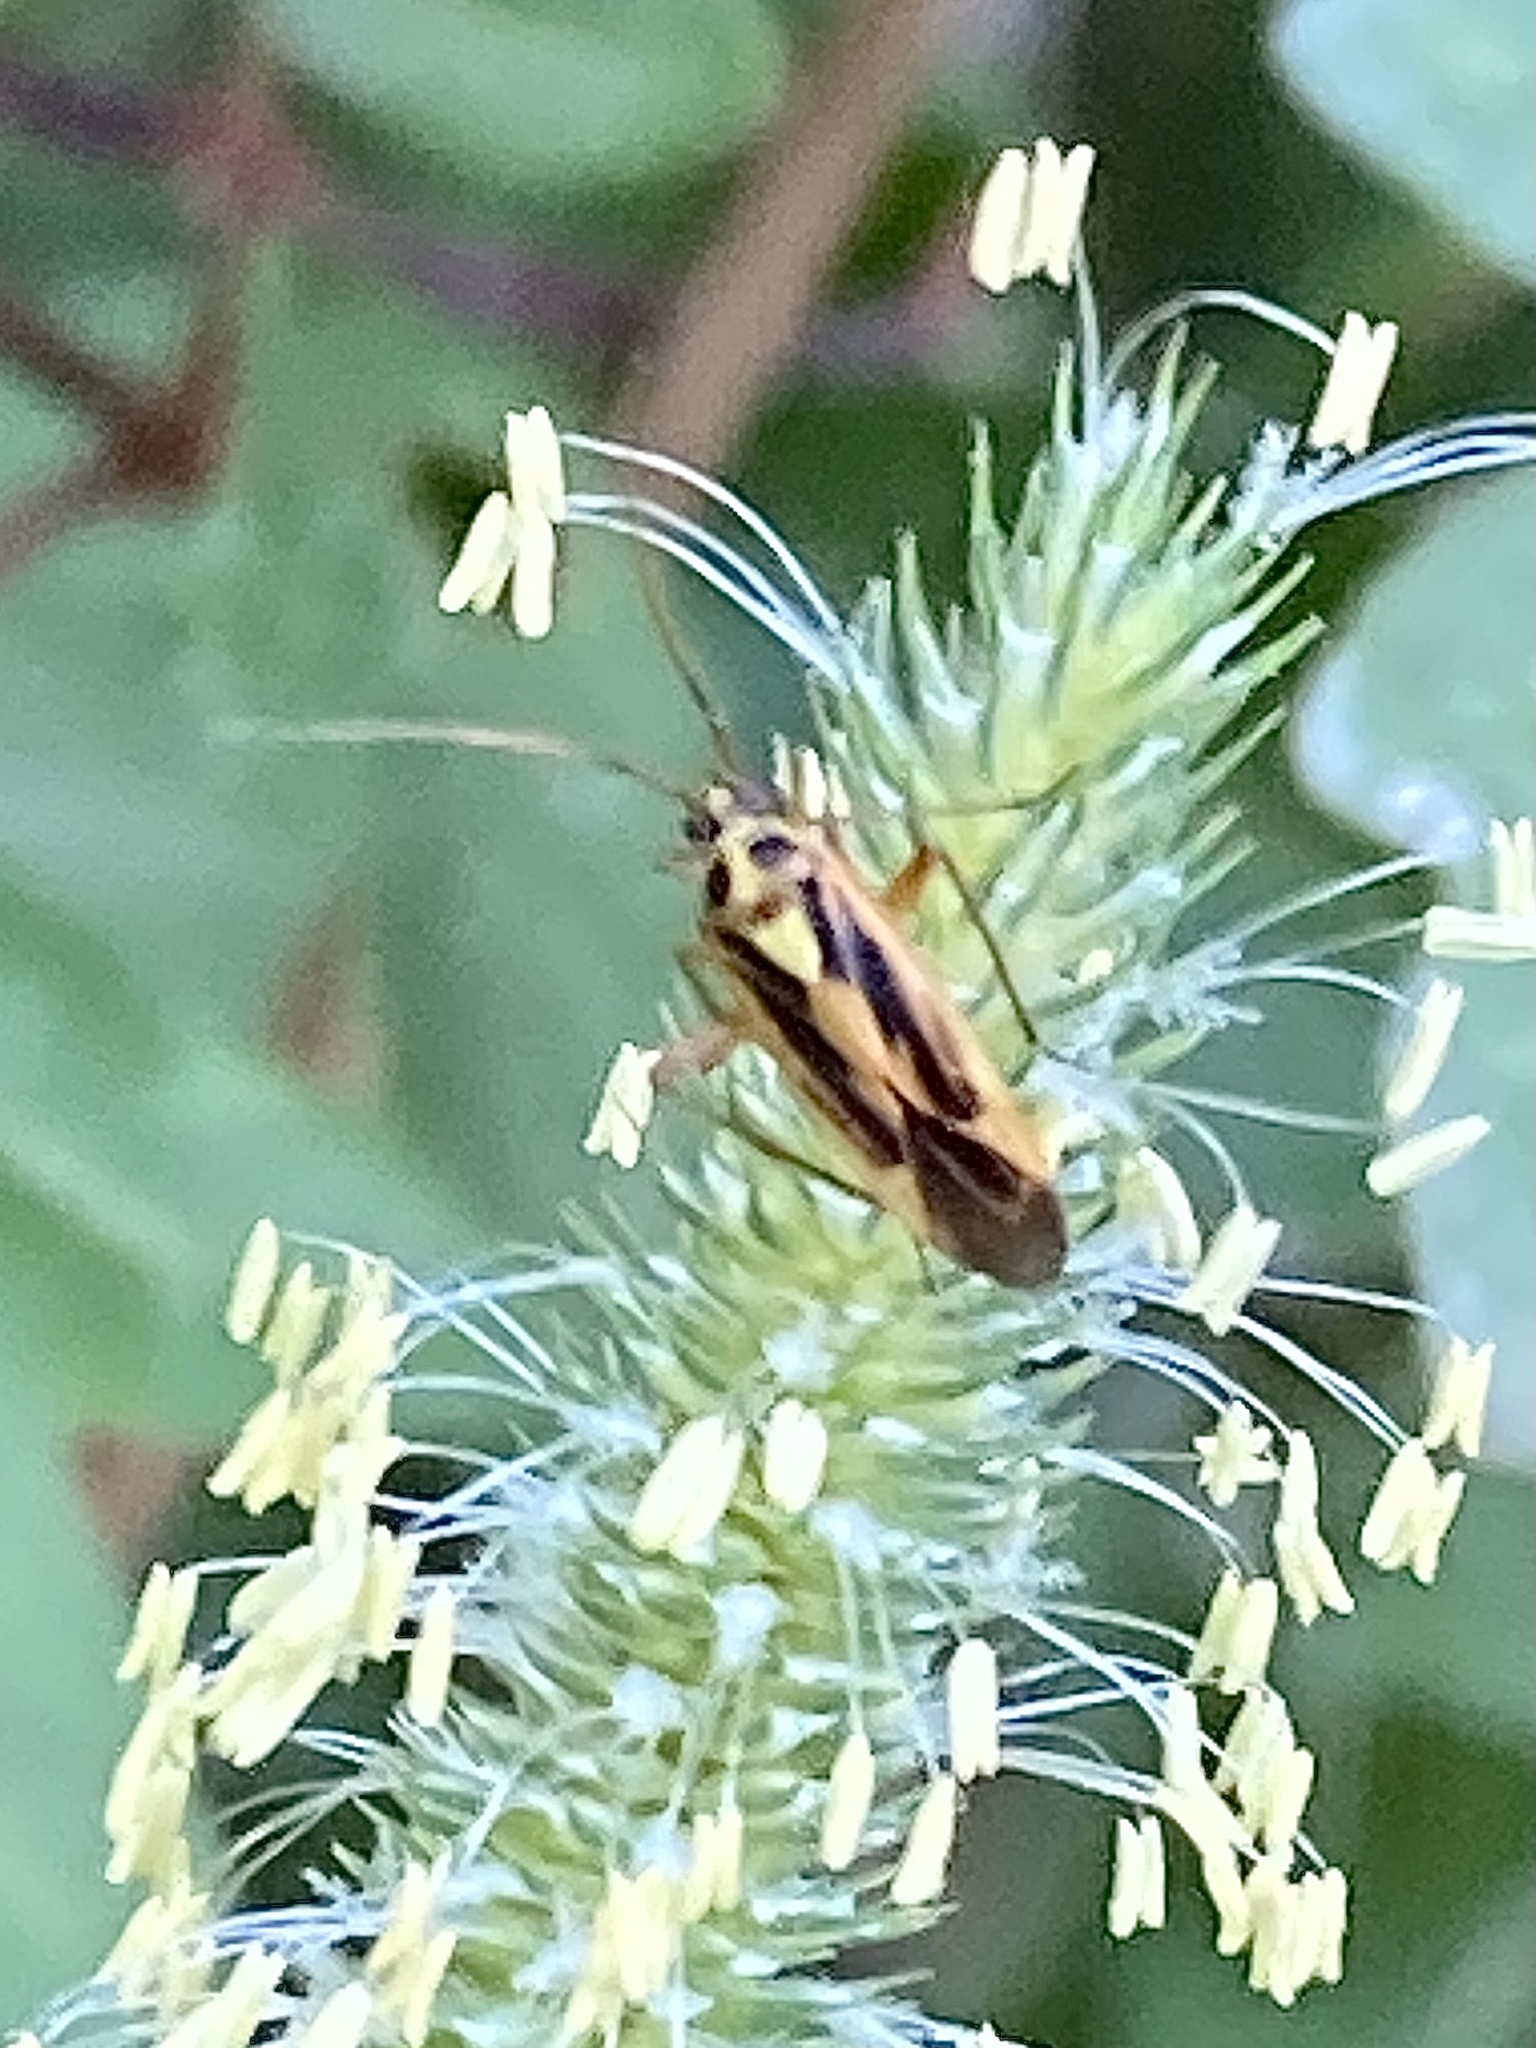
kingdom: Animalia
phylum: Arthropoda
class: Insecta
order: Hemiptera
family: Miridae
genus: Stenotus
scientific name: Stenotus binotatus
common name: Plant bug
